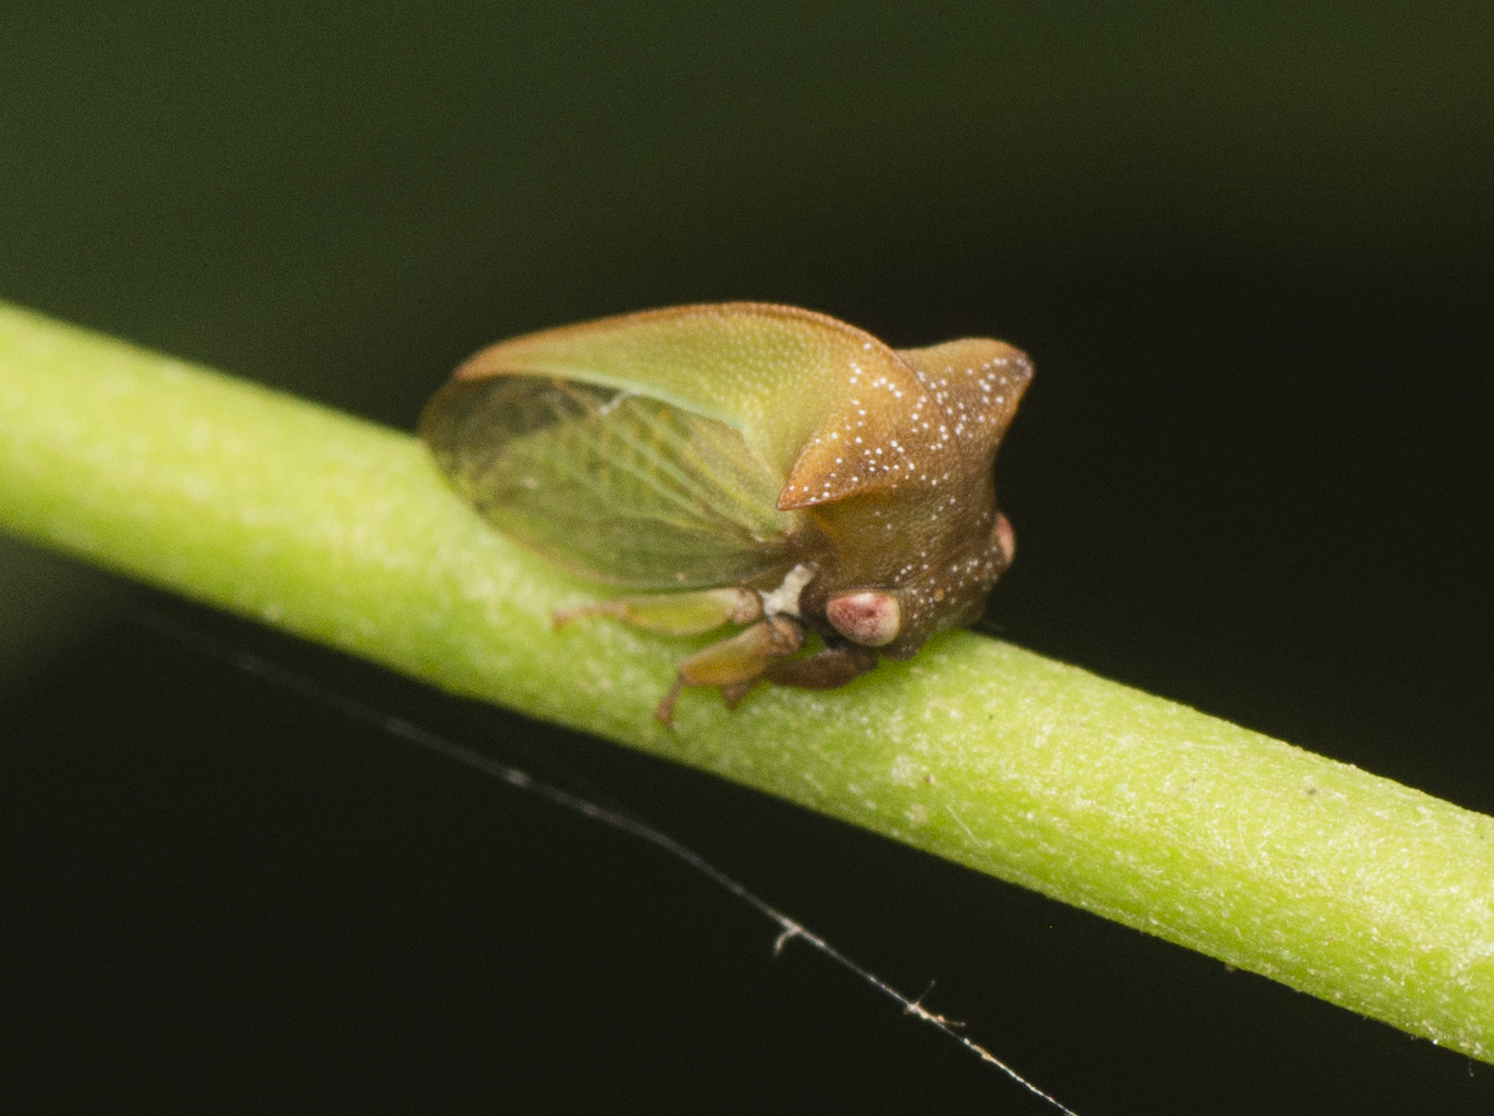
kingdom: Animalia
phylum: Arthropoda
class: Insecta
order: Hemiptera
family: Membracidae
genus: Sextius
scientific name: Sextius virescens
